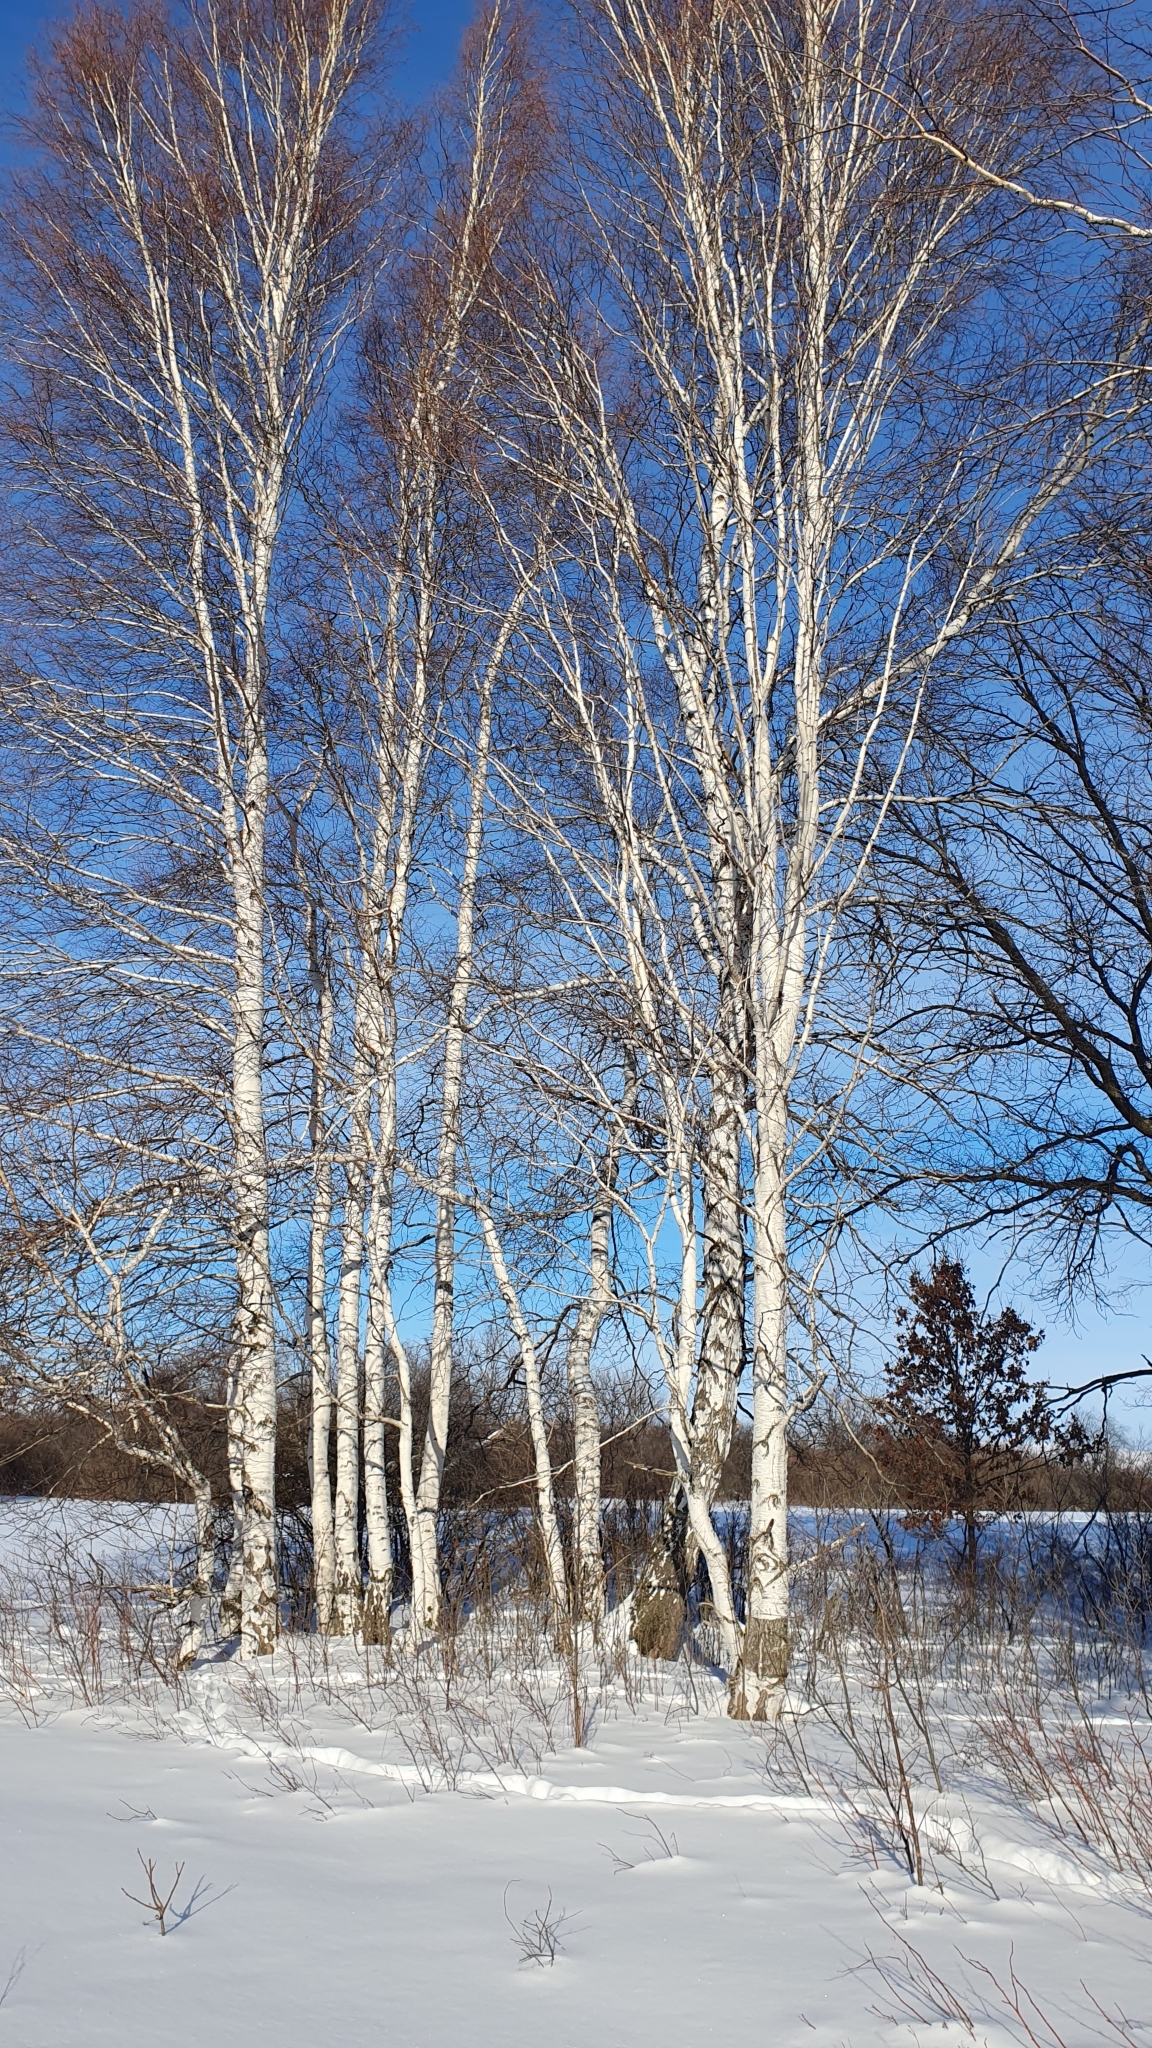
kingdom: Plantae
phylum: Tracheophyta
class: Magnoliopsida
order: Fagales
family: Betulaceae
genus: Betula
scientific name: Betula pendula
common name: Silver birch
